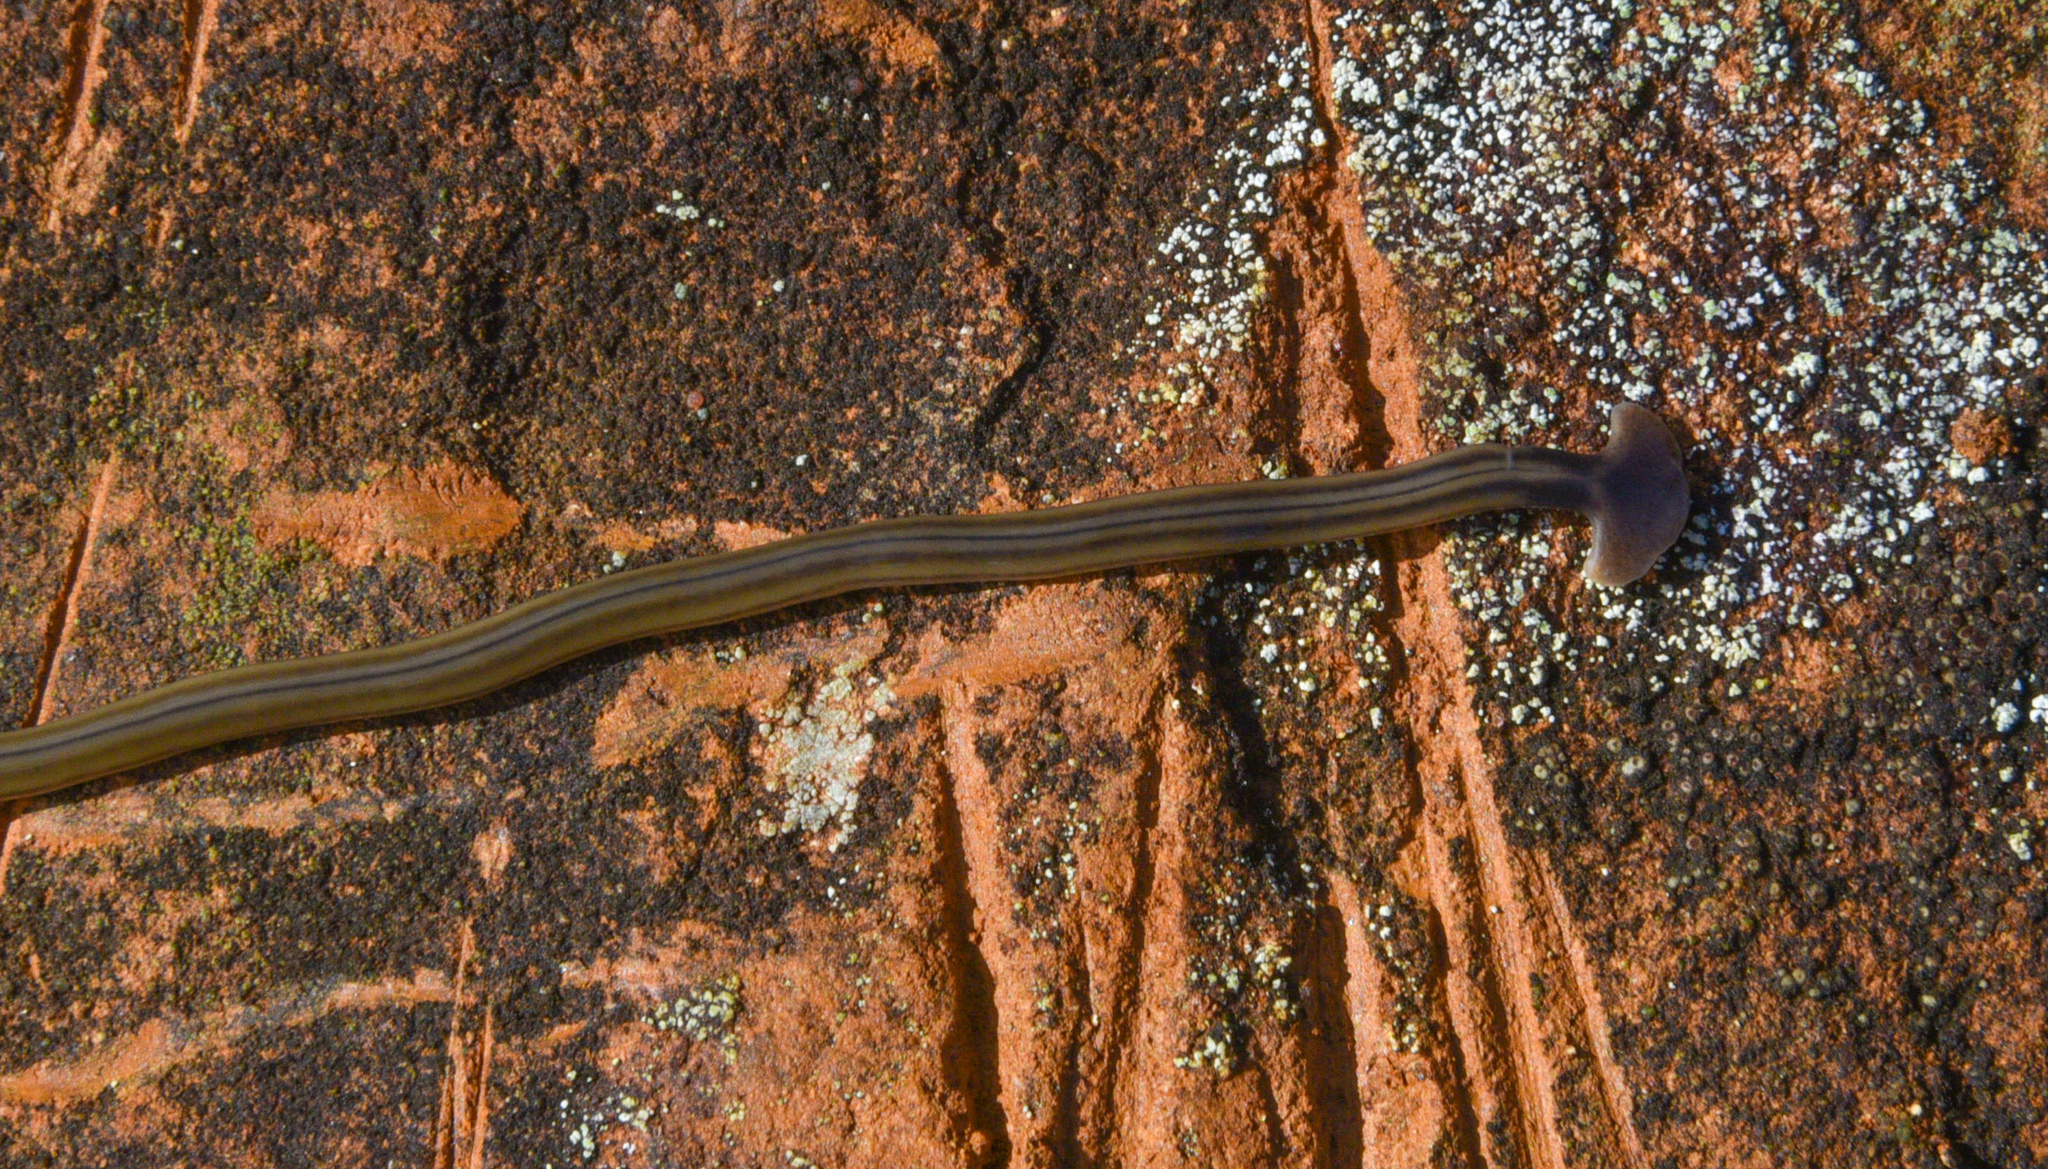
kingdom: Animalia
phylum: Platyhelminthes
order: Tricladida
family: Geoplanidae
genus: Bipalium
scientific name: Bipalium kewense
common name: Hammerhead flatworm
